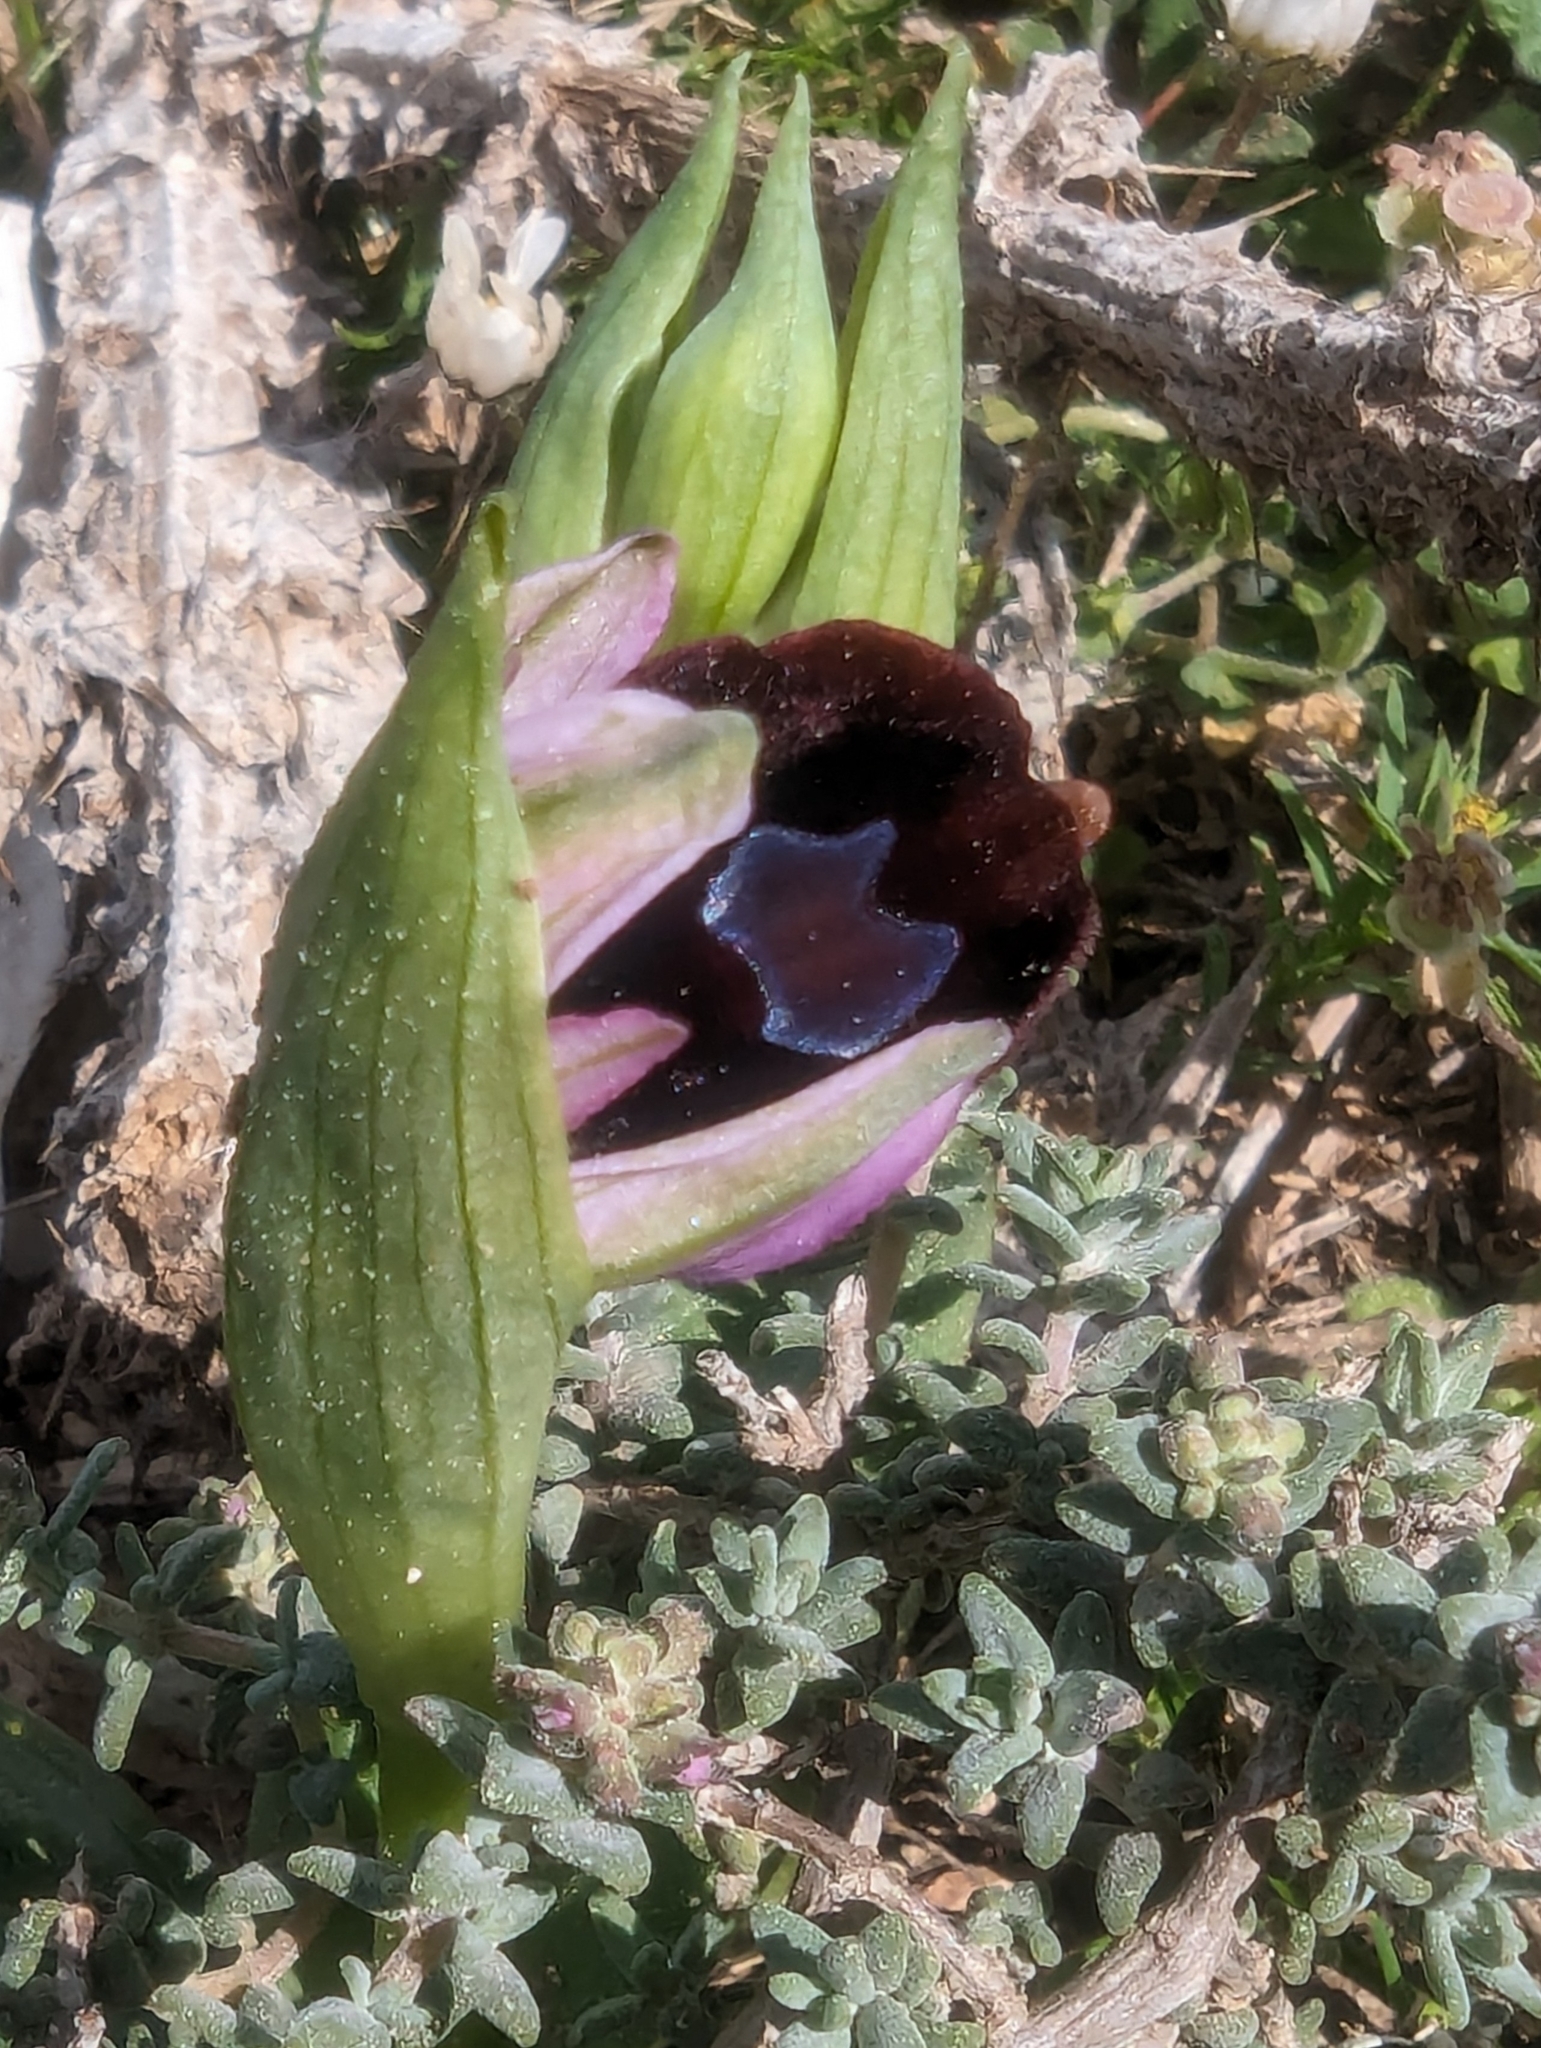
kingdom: Plantae
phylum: Tracheophyta
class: Liliopsida
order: Asparagales
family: Orchidaceae
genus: Ophrys
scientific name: Ophrys flavicans
